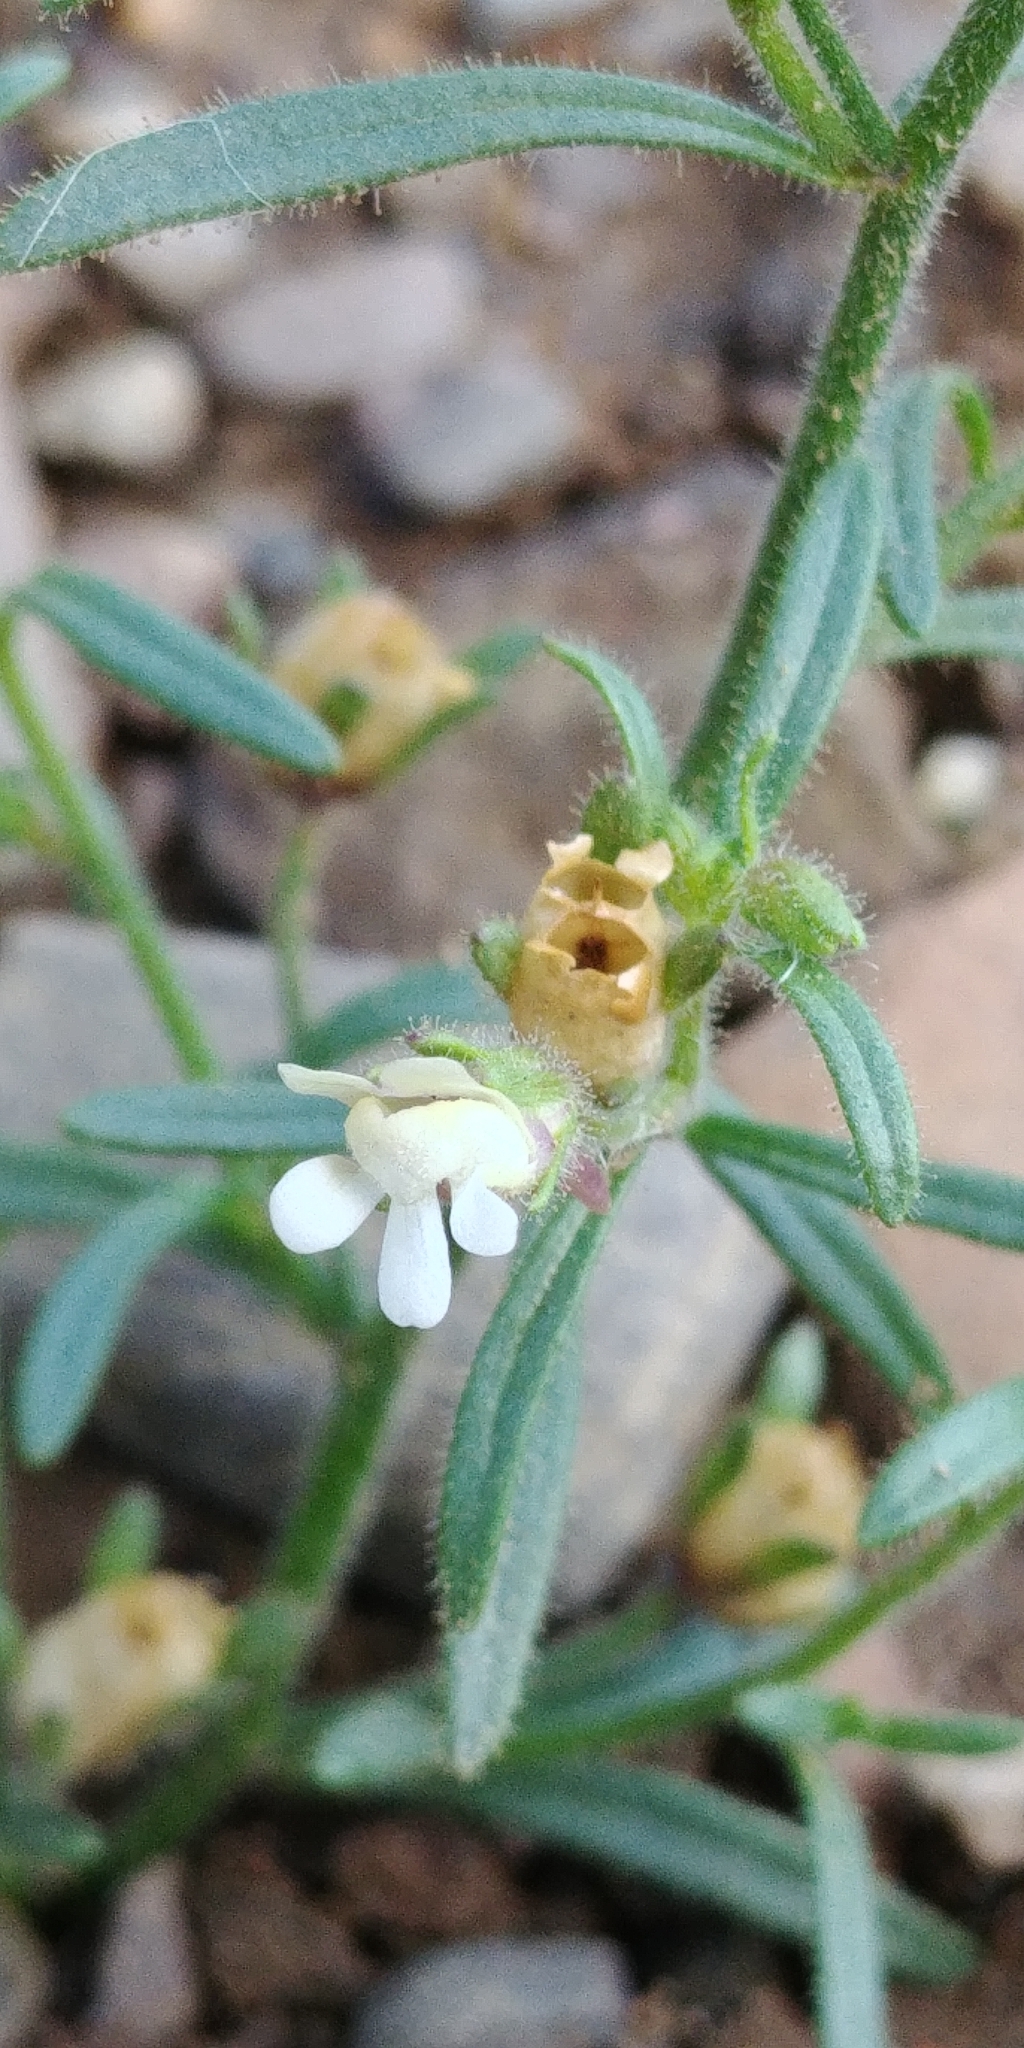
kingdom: Plantae
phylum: Tracheophyta
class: Magnoliopsida
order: Lamiales
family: Plantaginaceae
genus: Chaenorhinum
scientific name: Chaenorhinum minus
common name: Dwarf snapdragon
